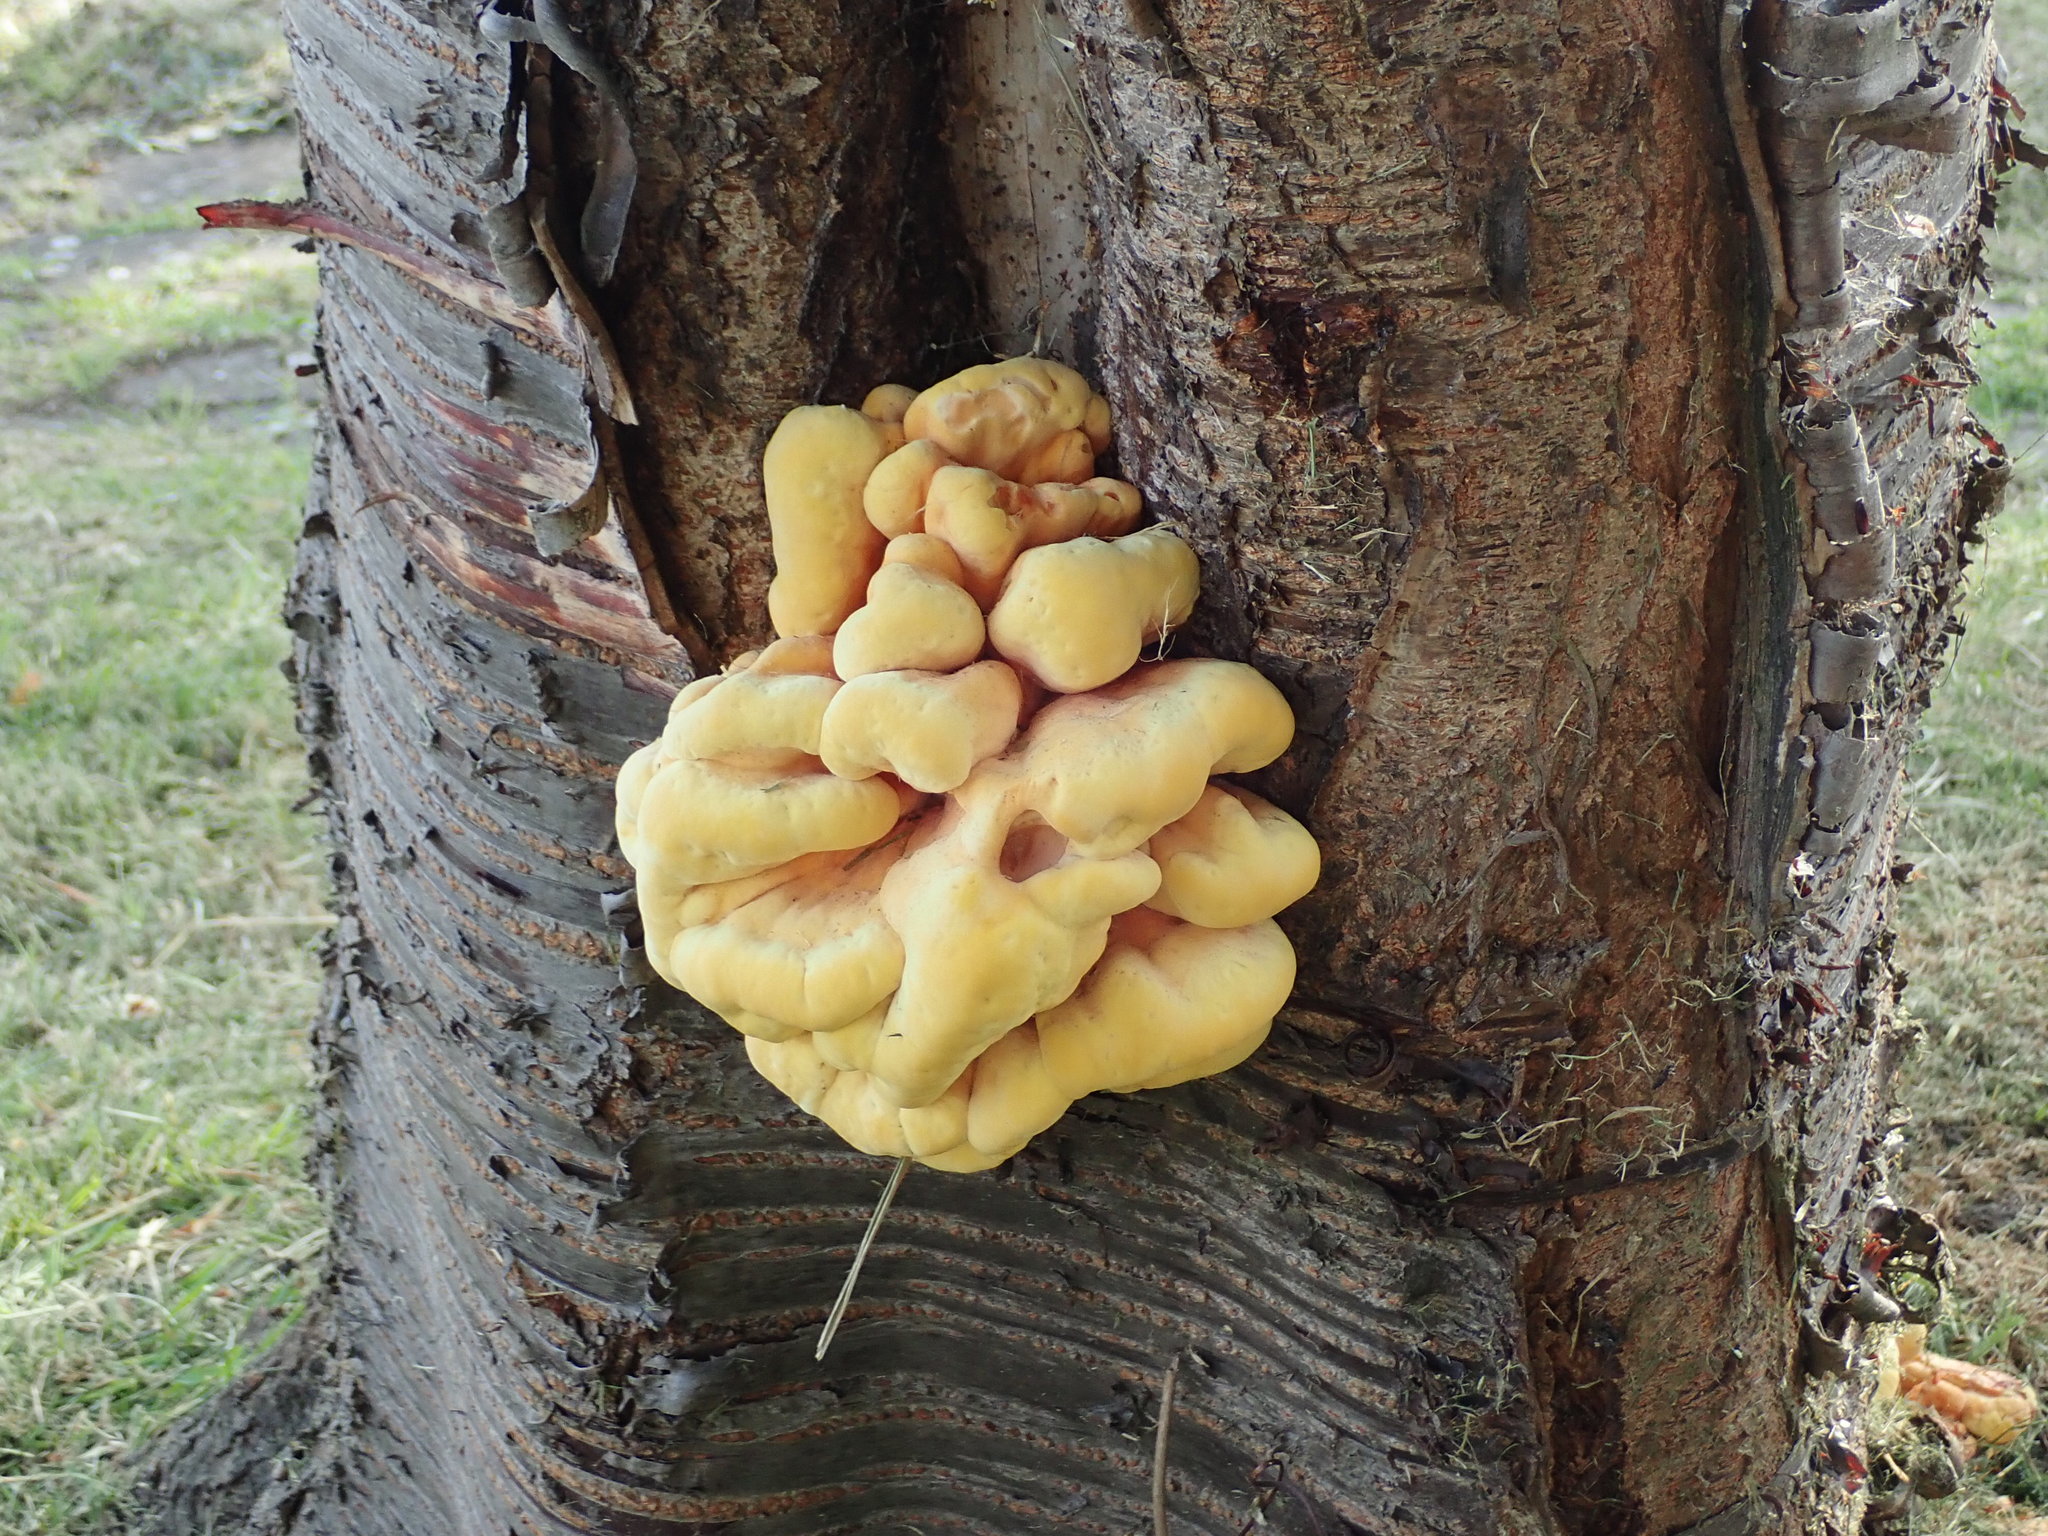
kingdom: Fungi
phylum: Basidiomycota
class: Agaricomycetes
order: Polyporales
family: Laetiporaceae
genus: Laetiporus
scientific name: Laetiporus sulphureus
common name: Chicken of the woods
